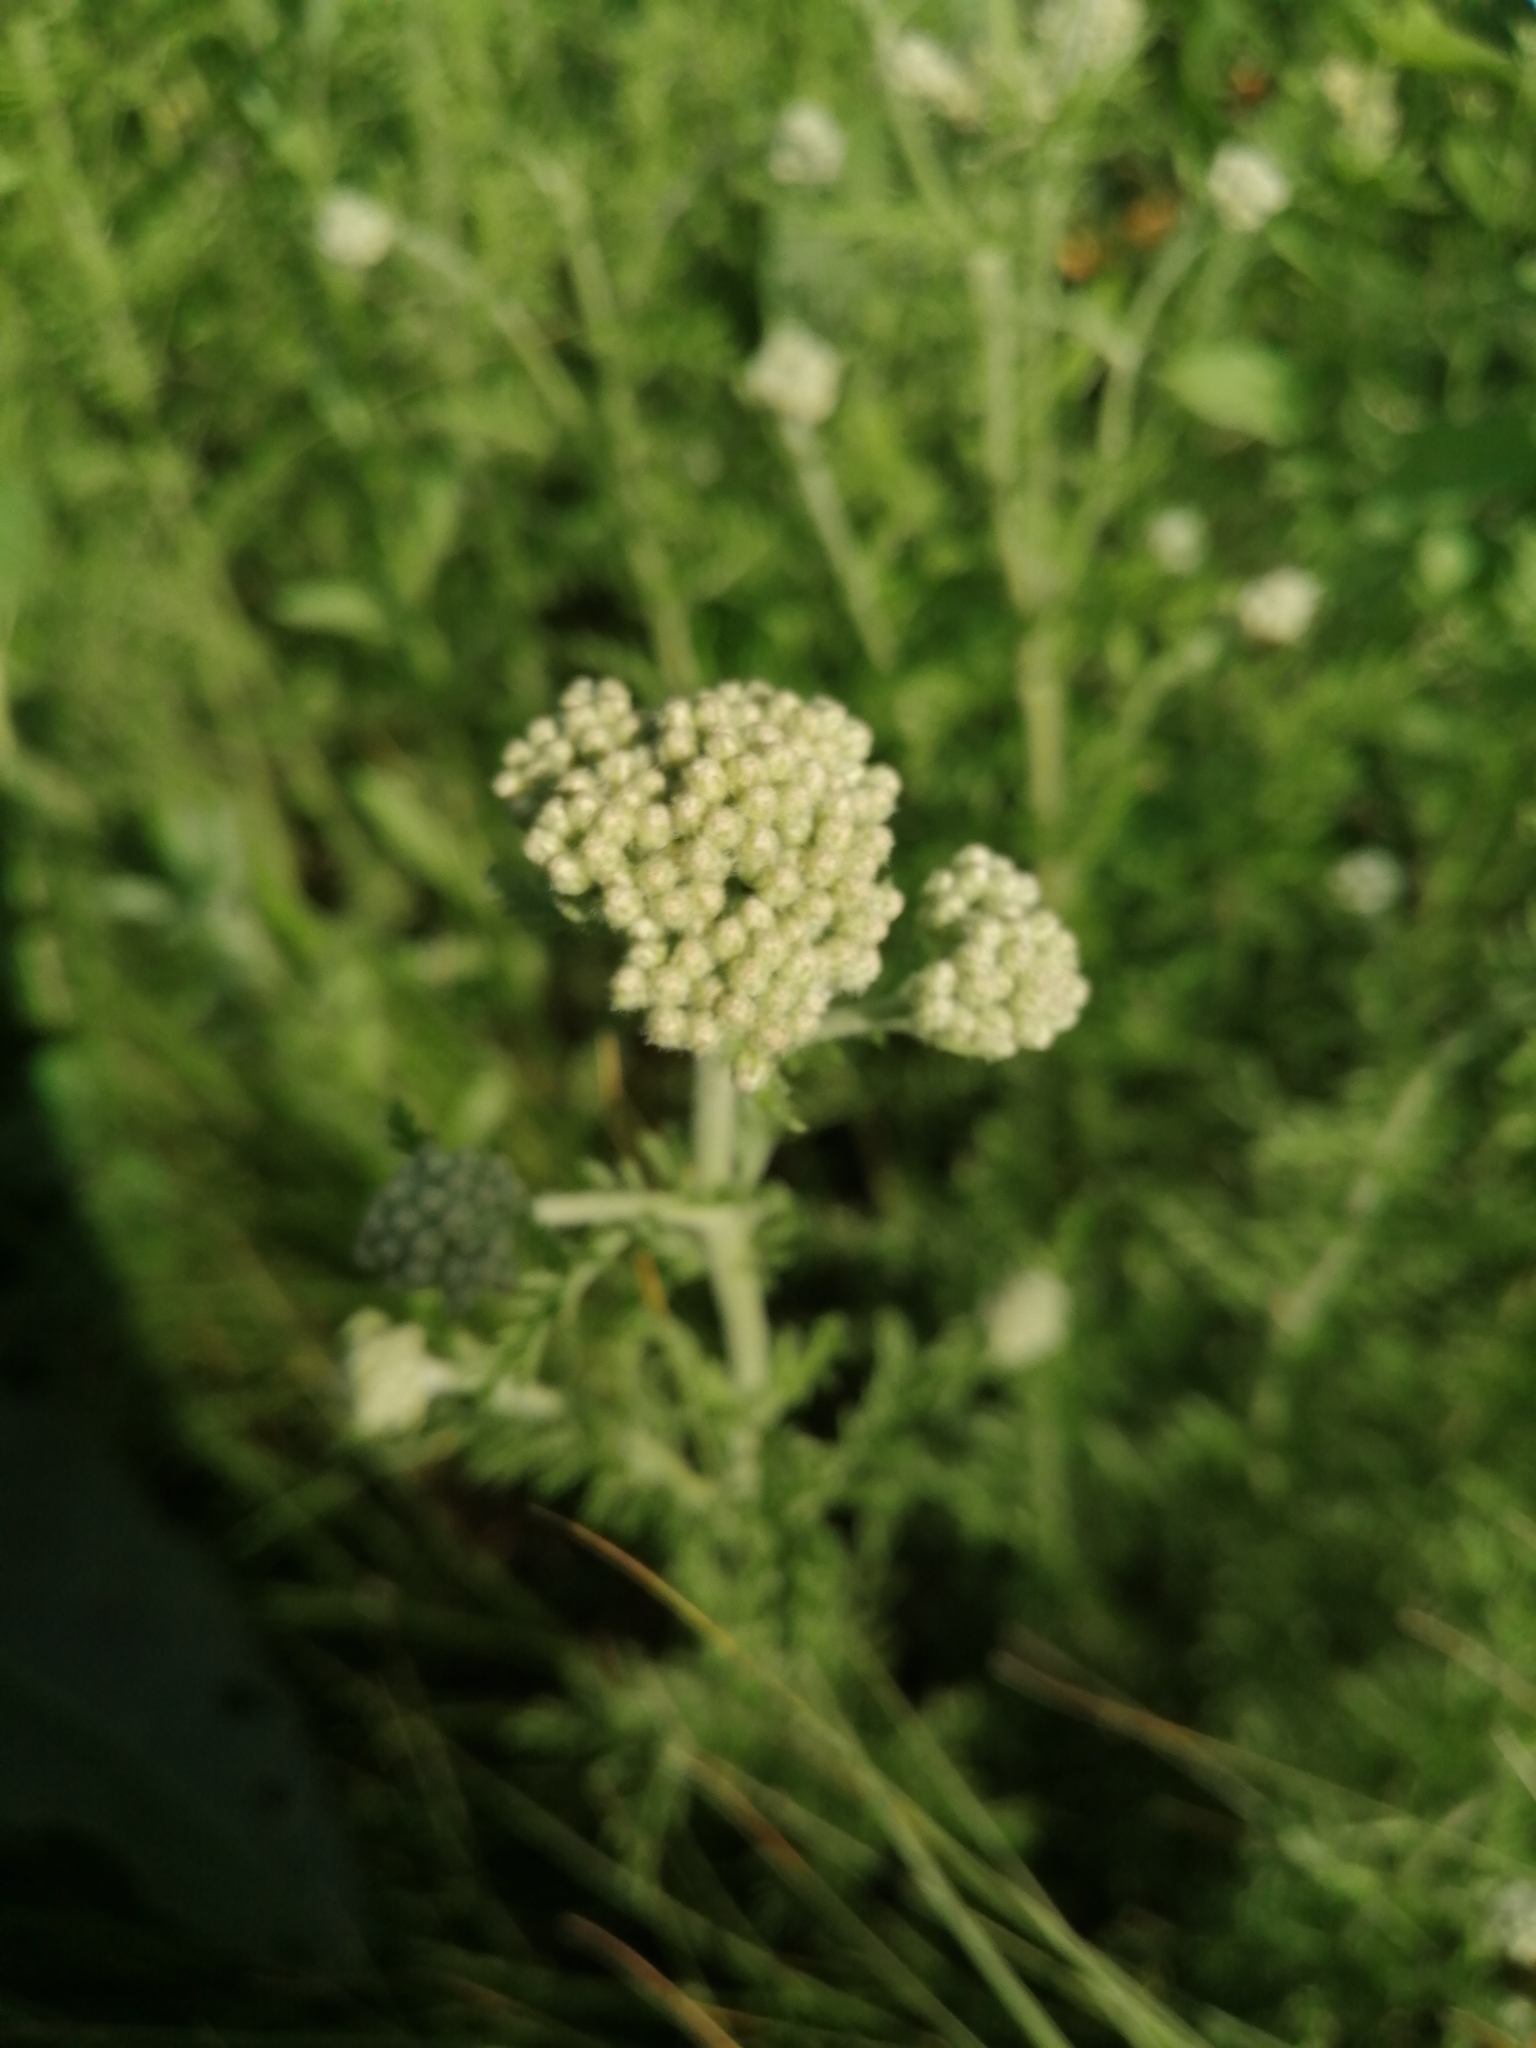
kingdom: Plantae
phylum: Tracheophyta
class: Magnoliopsida
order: Asterales
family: Asteraceae
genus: Achillea
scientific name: Achillea nobilis
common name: Noble yarrow
